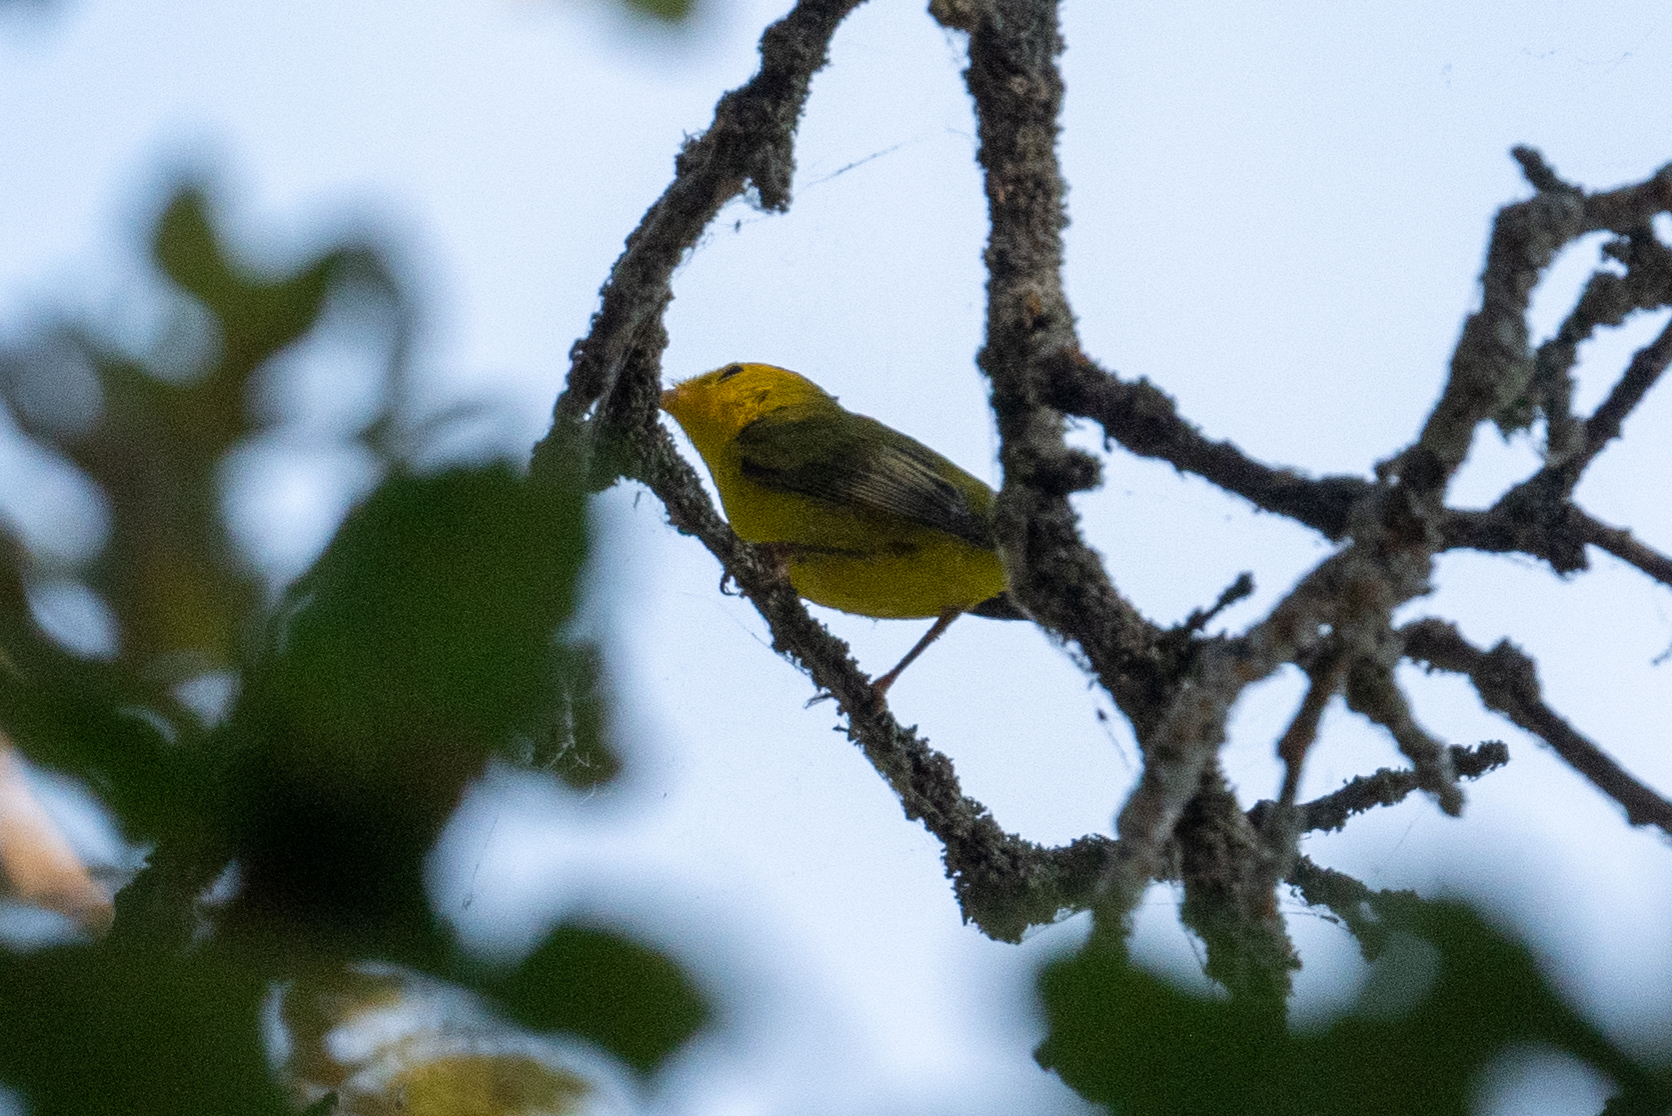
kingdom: Animalia
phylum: Chordata
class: Aves
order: Passeriformes
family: Parulidae
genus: Cardellina
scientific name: Cardellina pusilla
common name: Wilson's warbler
